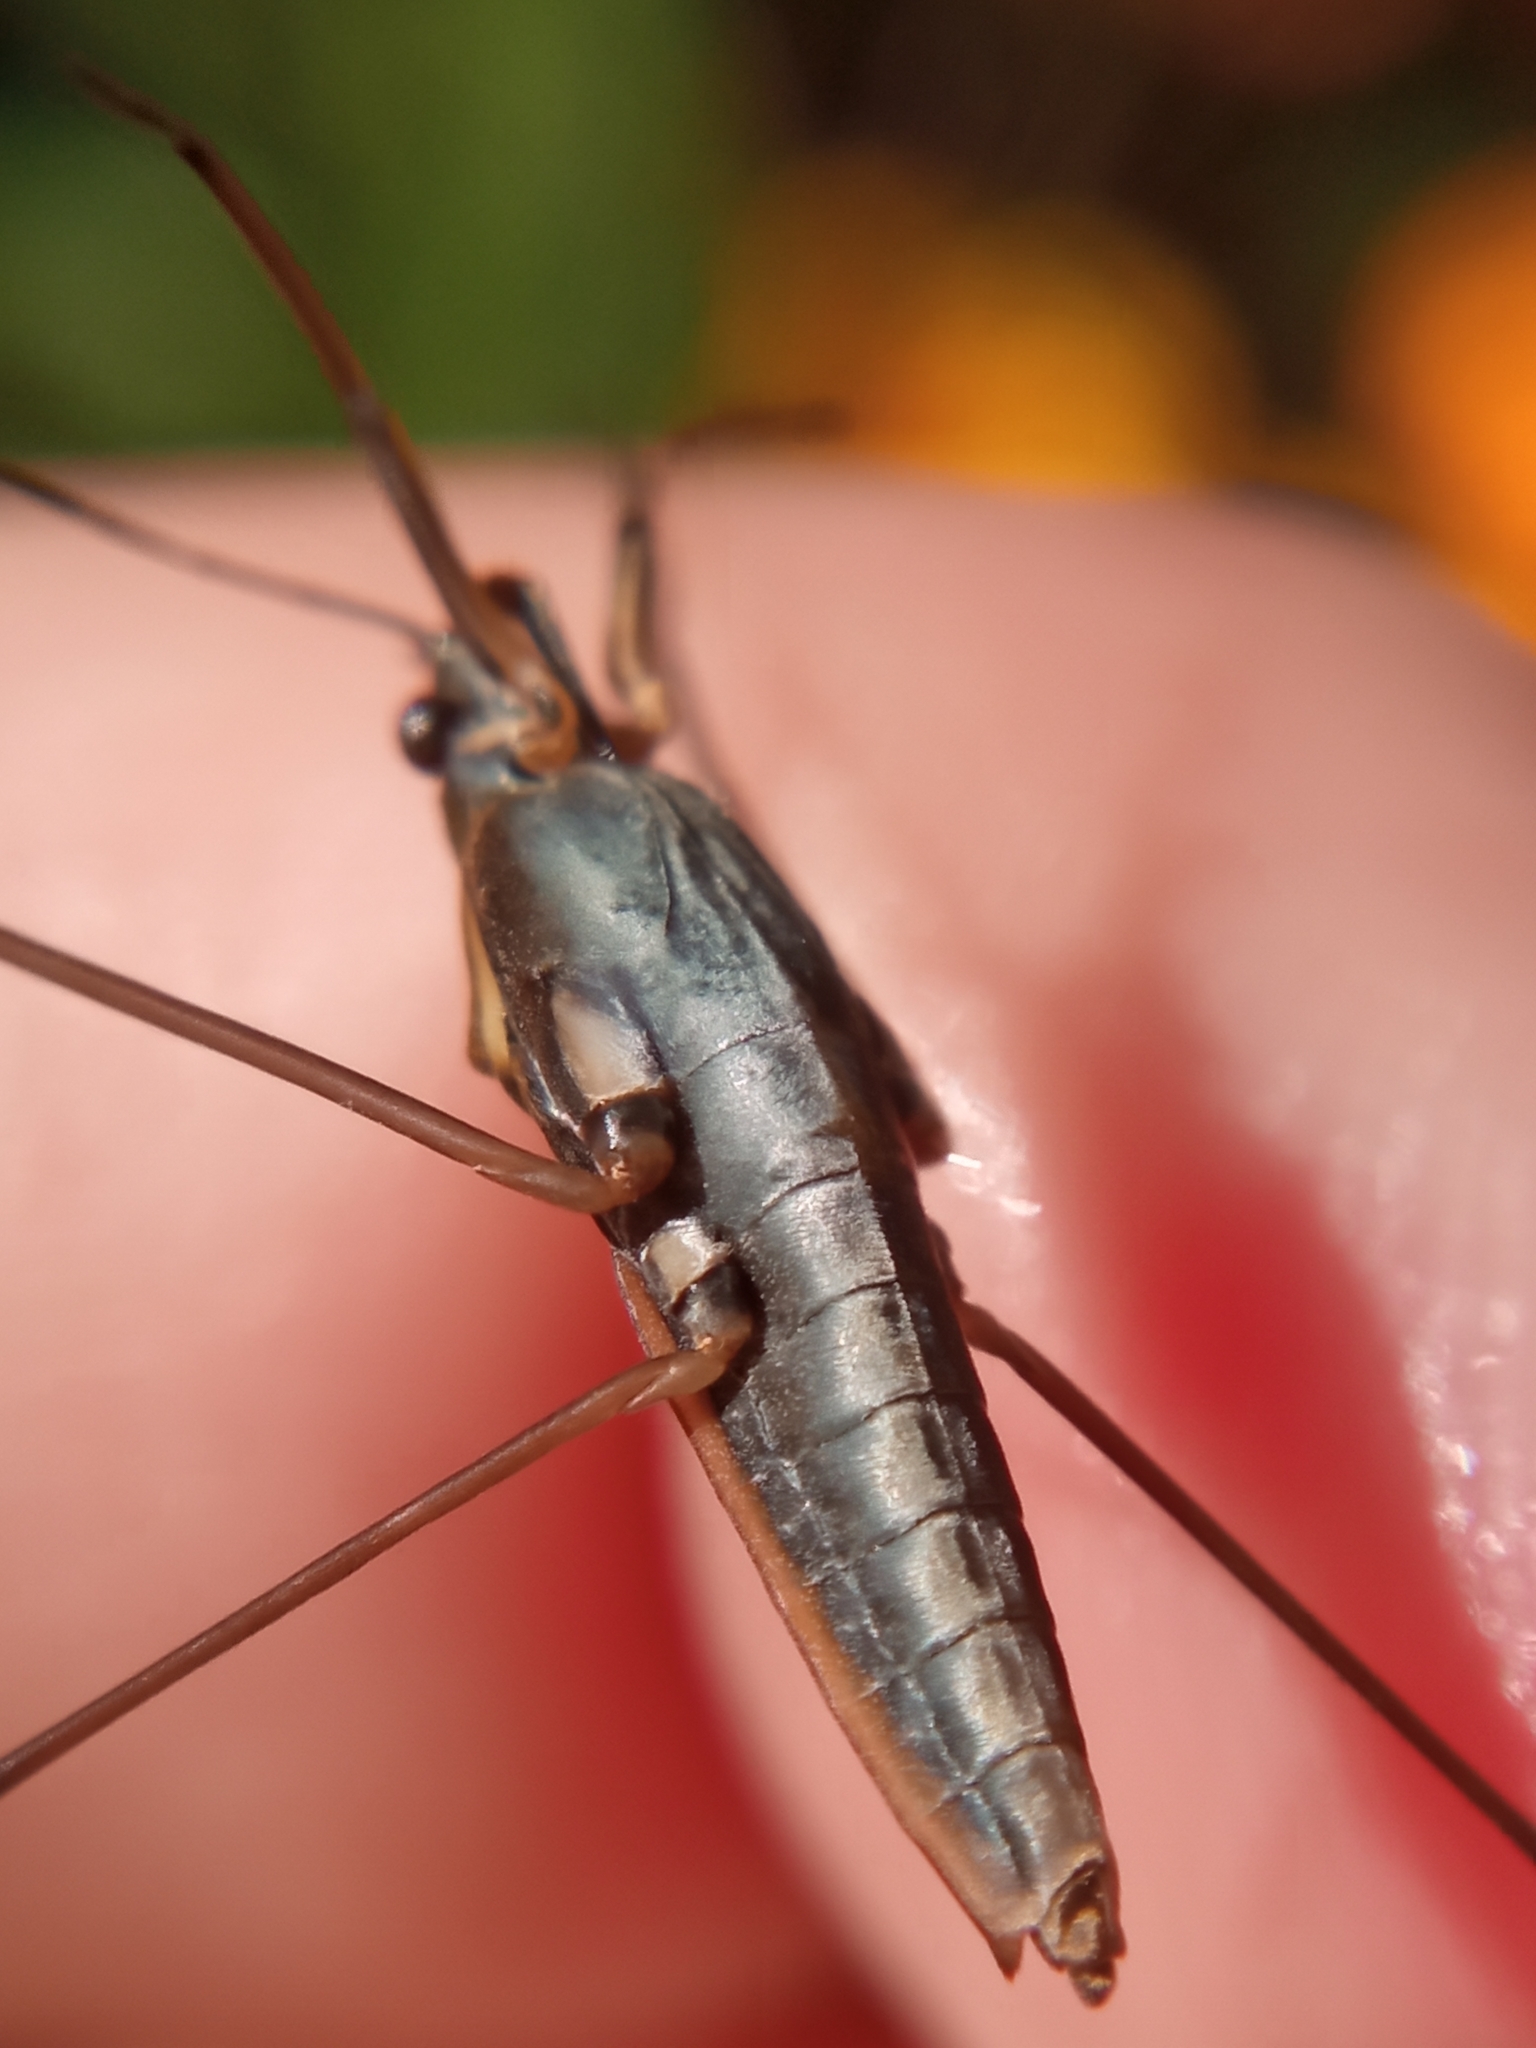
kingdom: Animalia
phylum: Arthropoda
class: Insecta
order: Hemiptera
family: Gerridae
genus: Gerris
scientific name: Gerris
